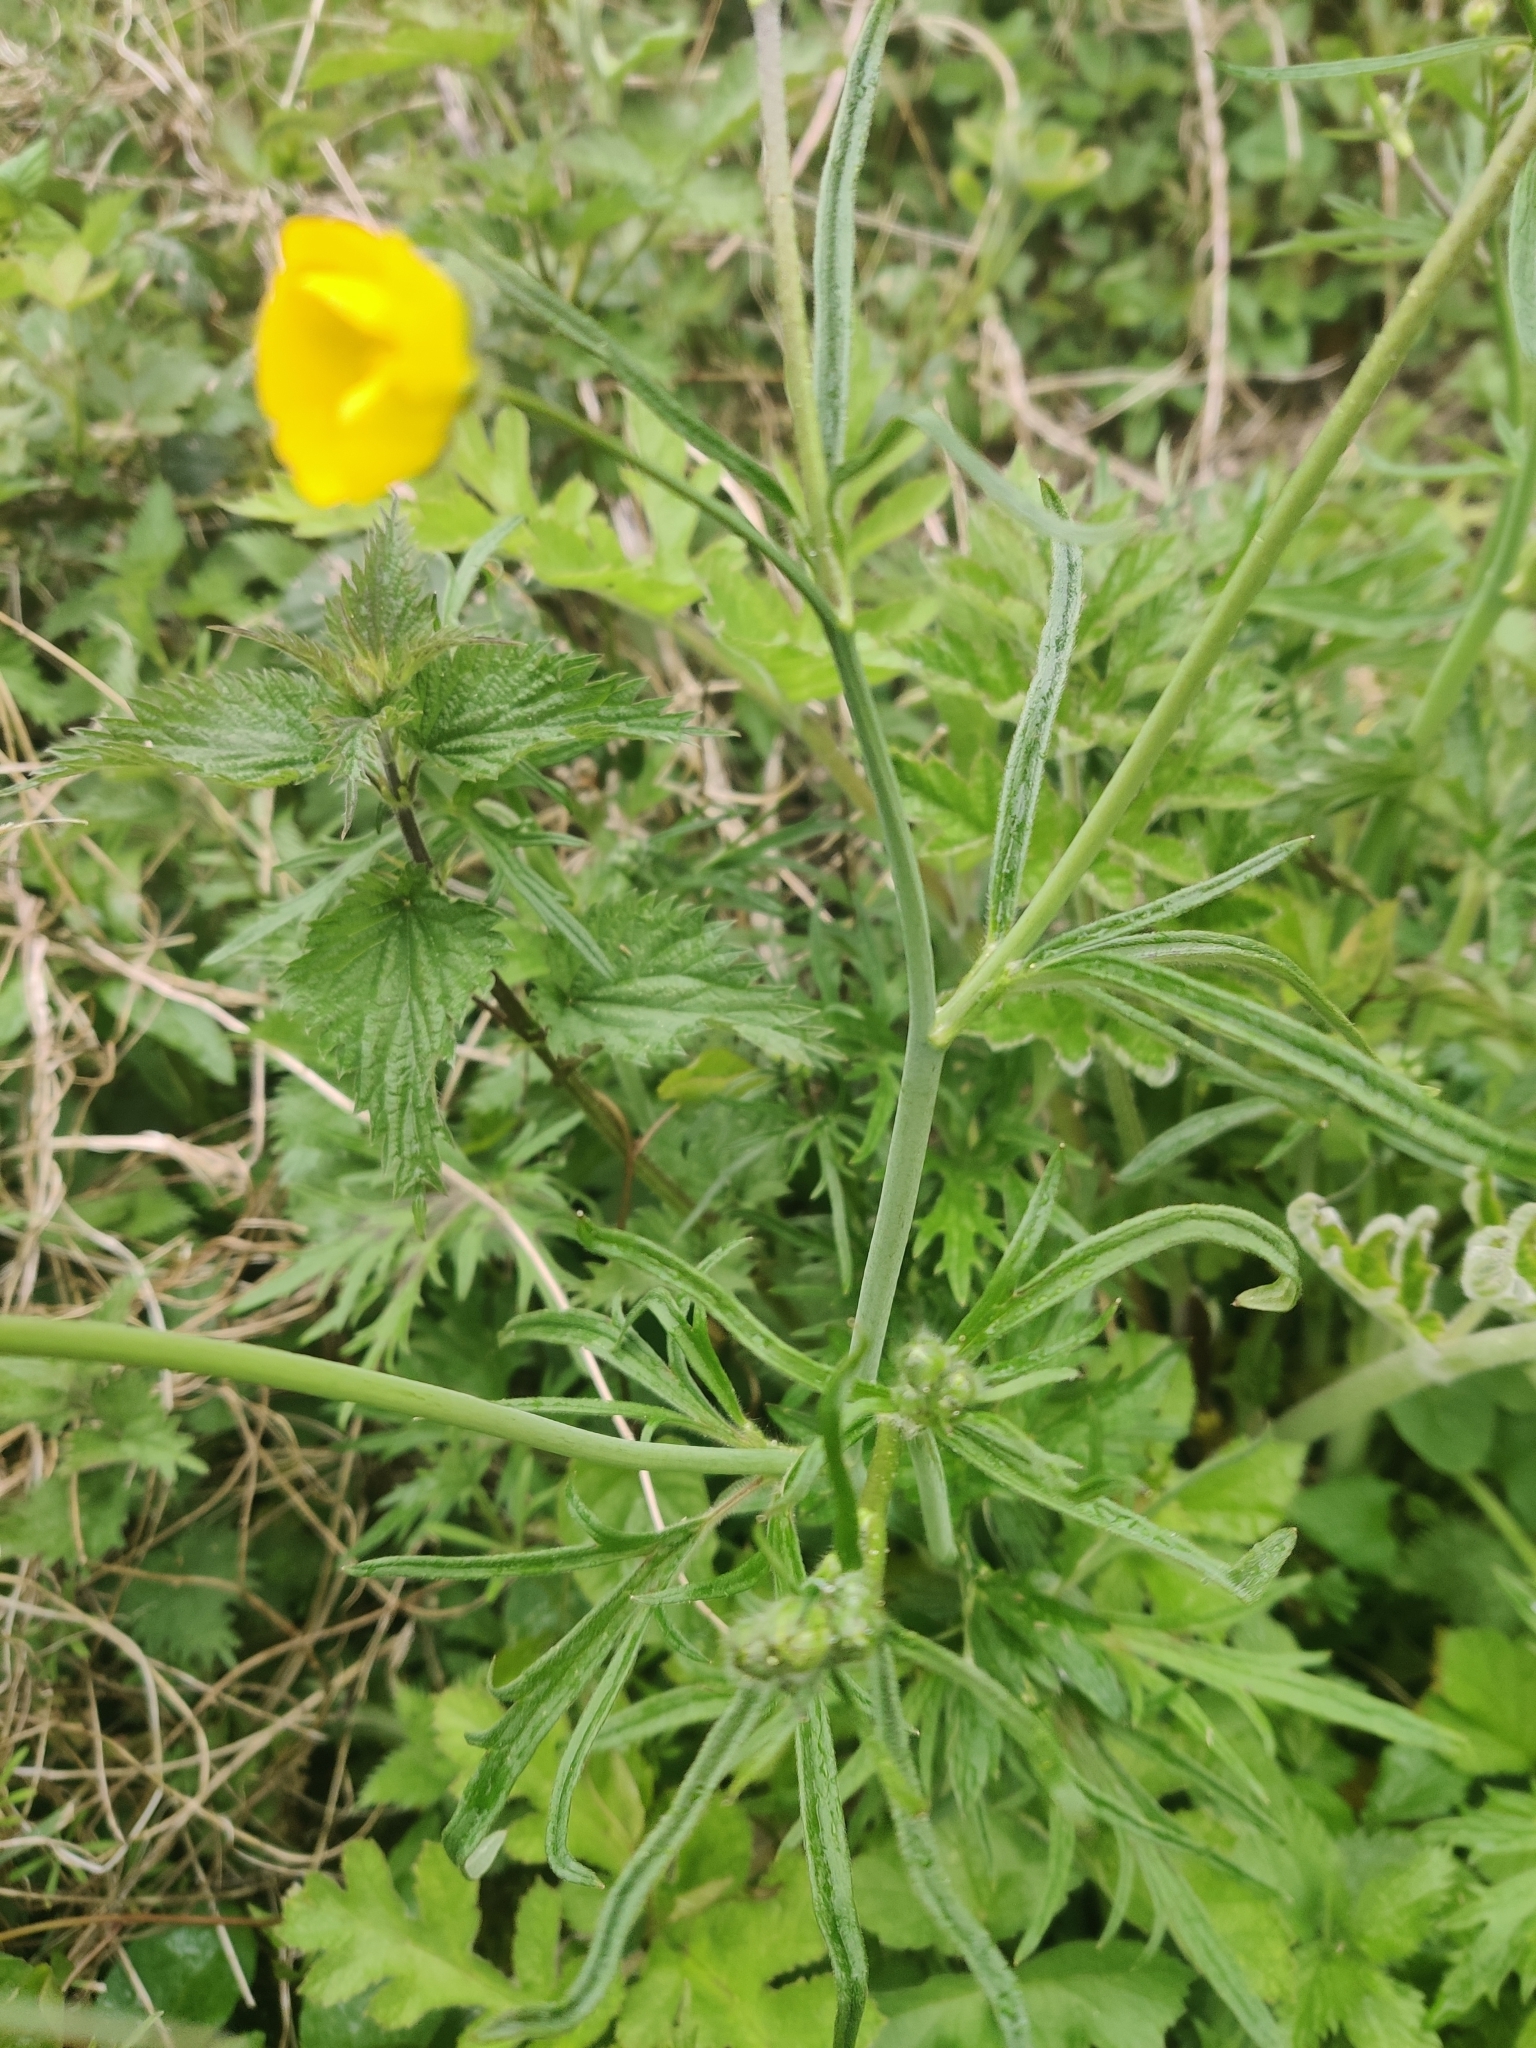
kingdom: Plantae
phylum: Tracheophyta
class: Magnoliopsida
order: Ranunculales
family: Ranunculaceae
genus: Ranunculus
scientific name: Ranunculus acris
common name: Meadow buttercup
